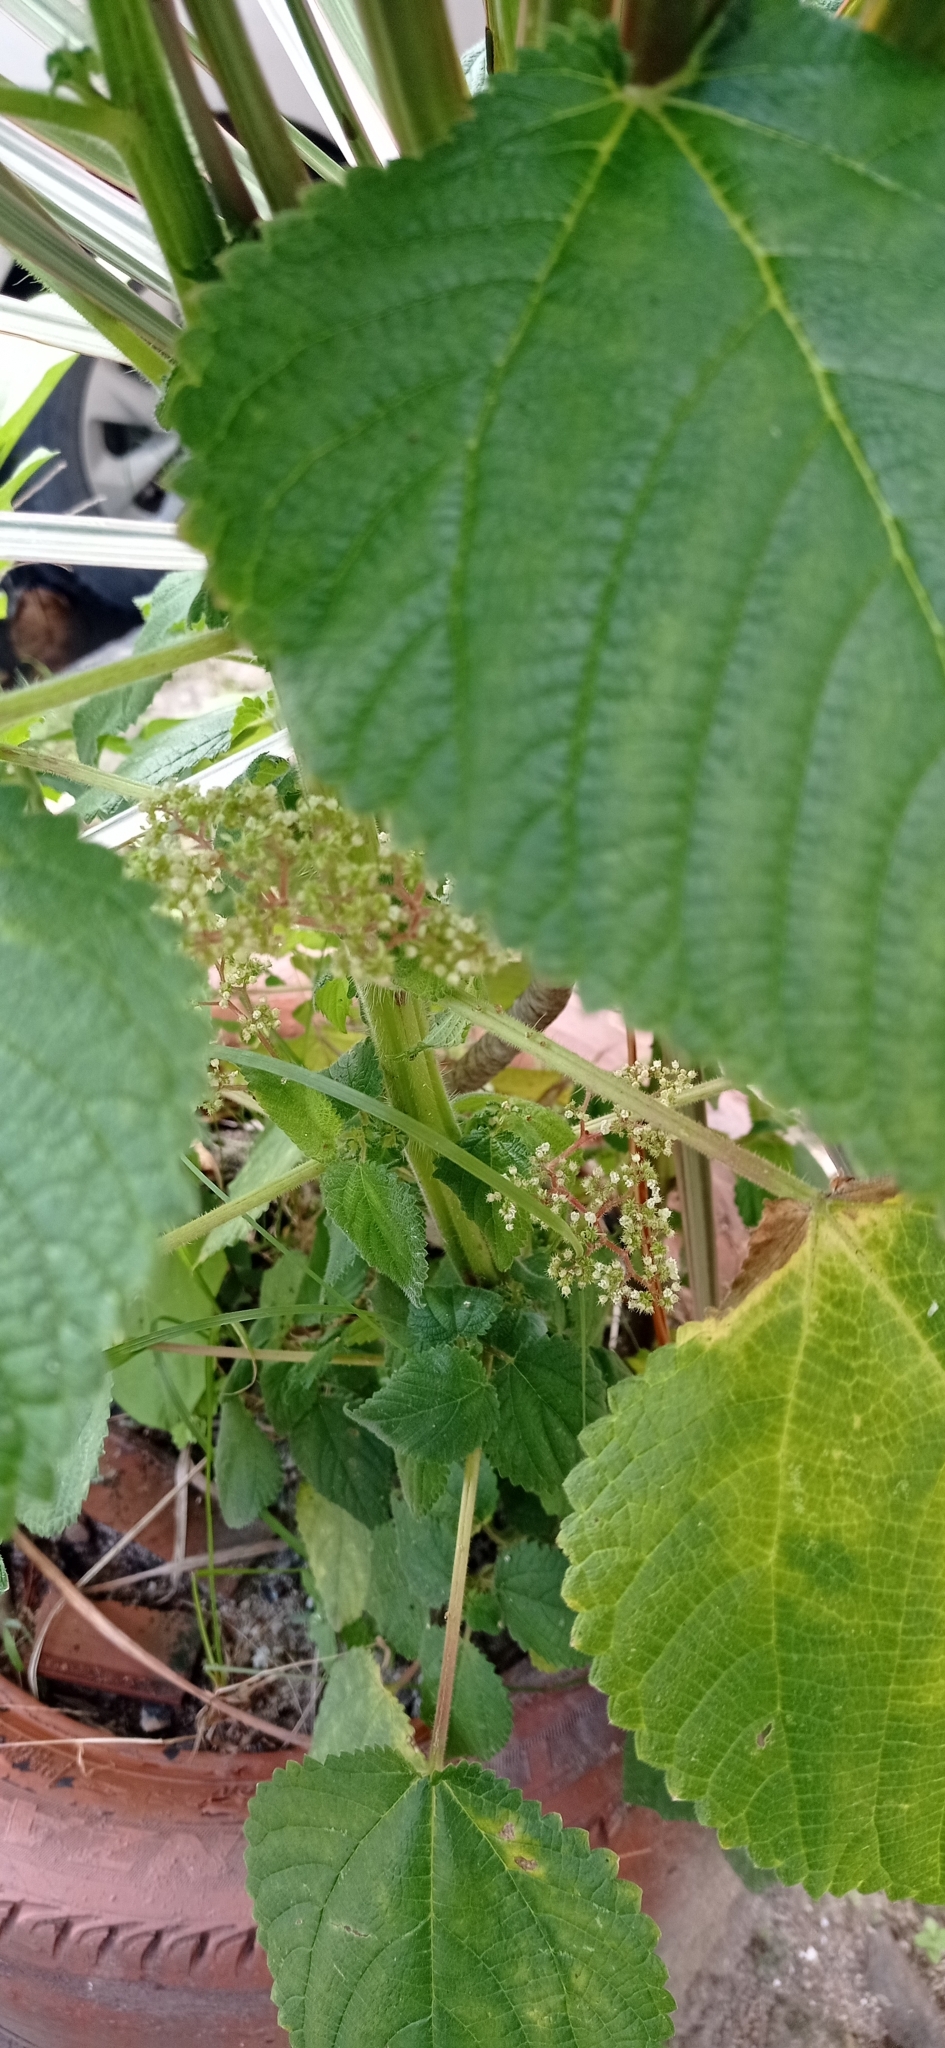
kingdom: Plantae
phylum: Tracheophyta
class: Magnoliopsida
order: Rosales
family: Urticaceae
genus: Laportea
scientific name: Laportea aestuans
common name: West indian woodnettle
